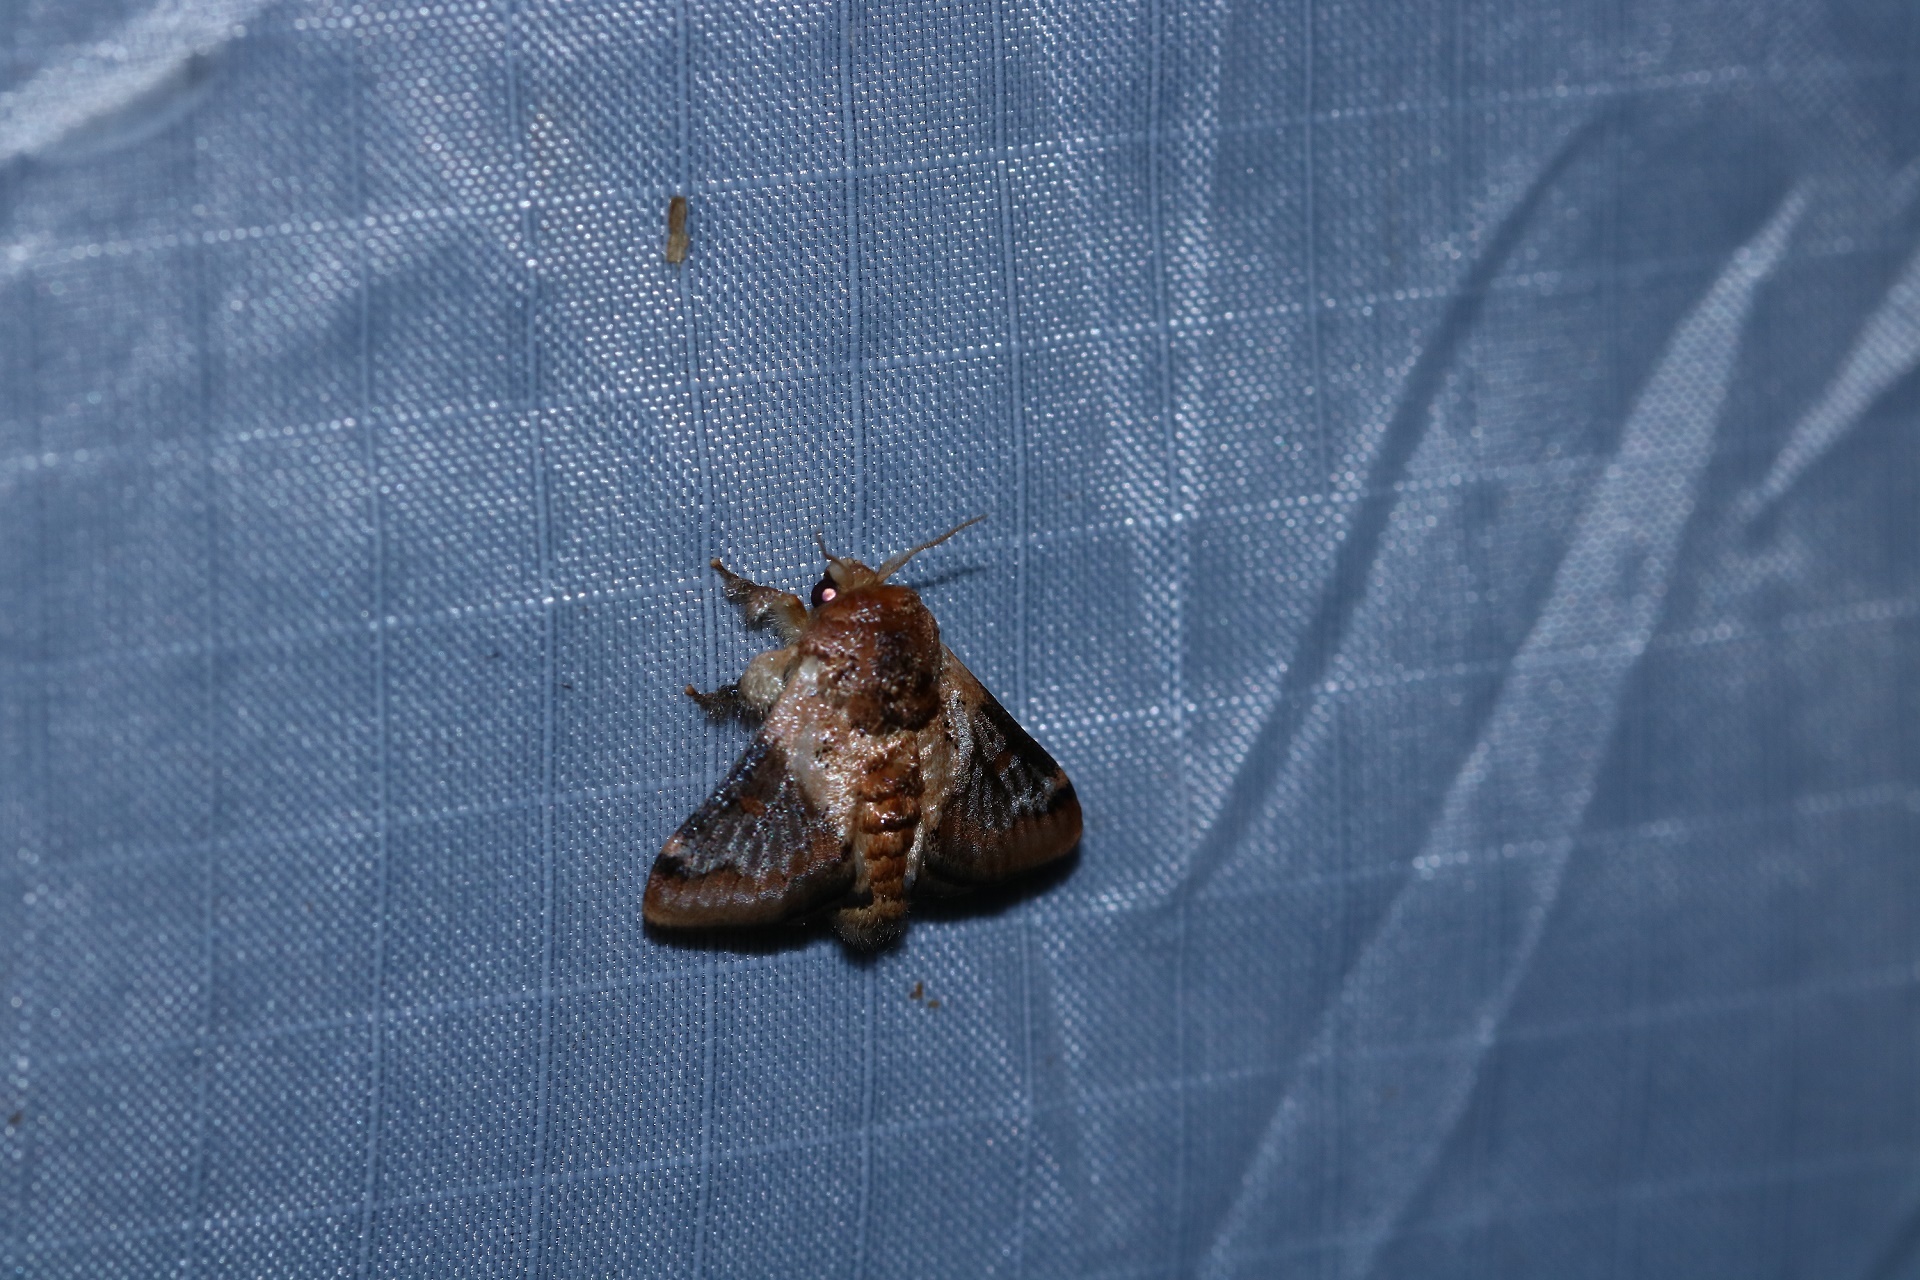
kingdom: Animalia
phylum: Arthropoda
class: Insecta
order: Lepidoptera
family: Limacodidae
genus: Nirmides
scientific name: Nirmides basalis
